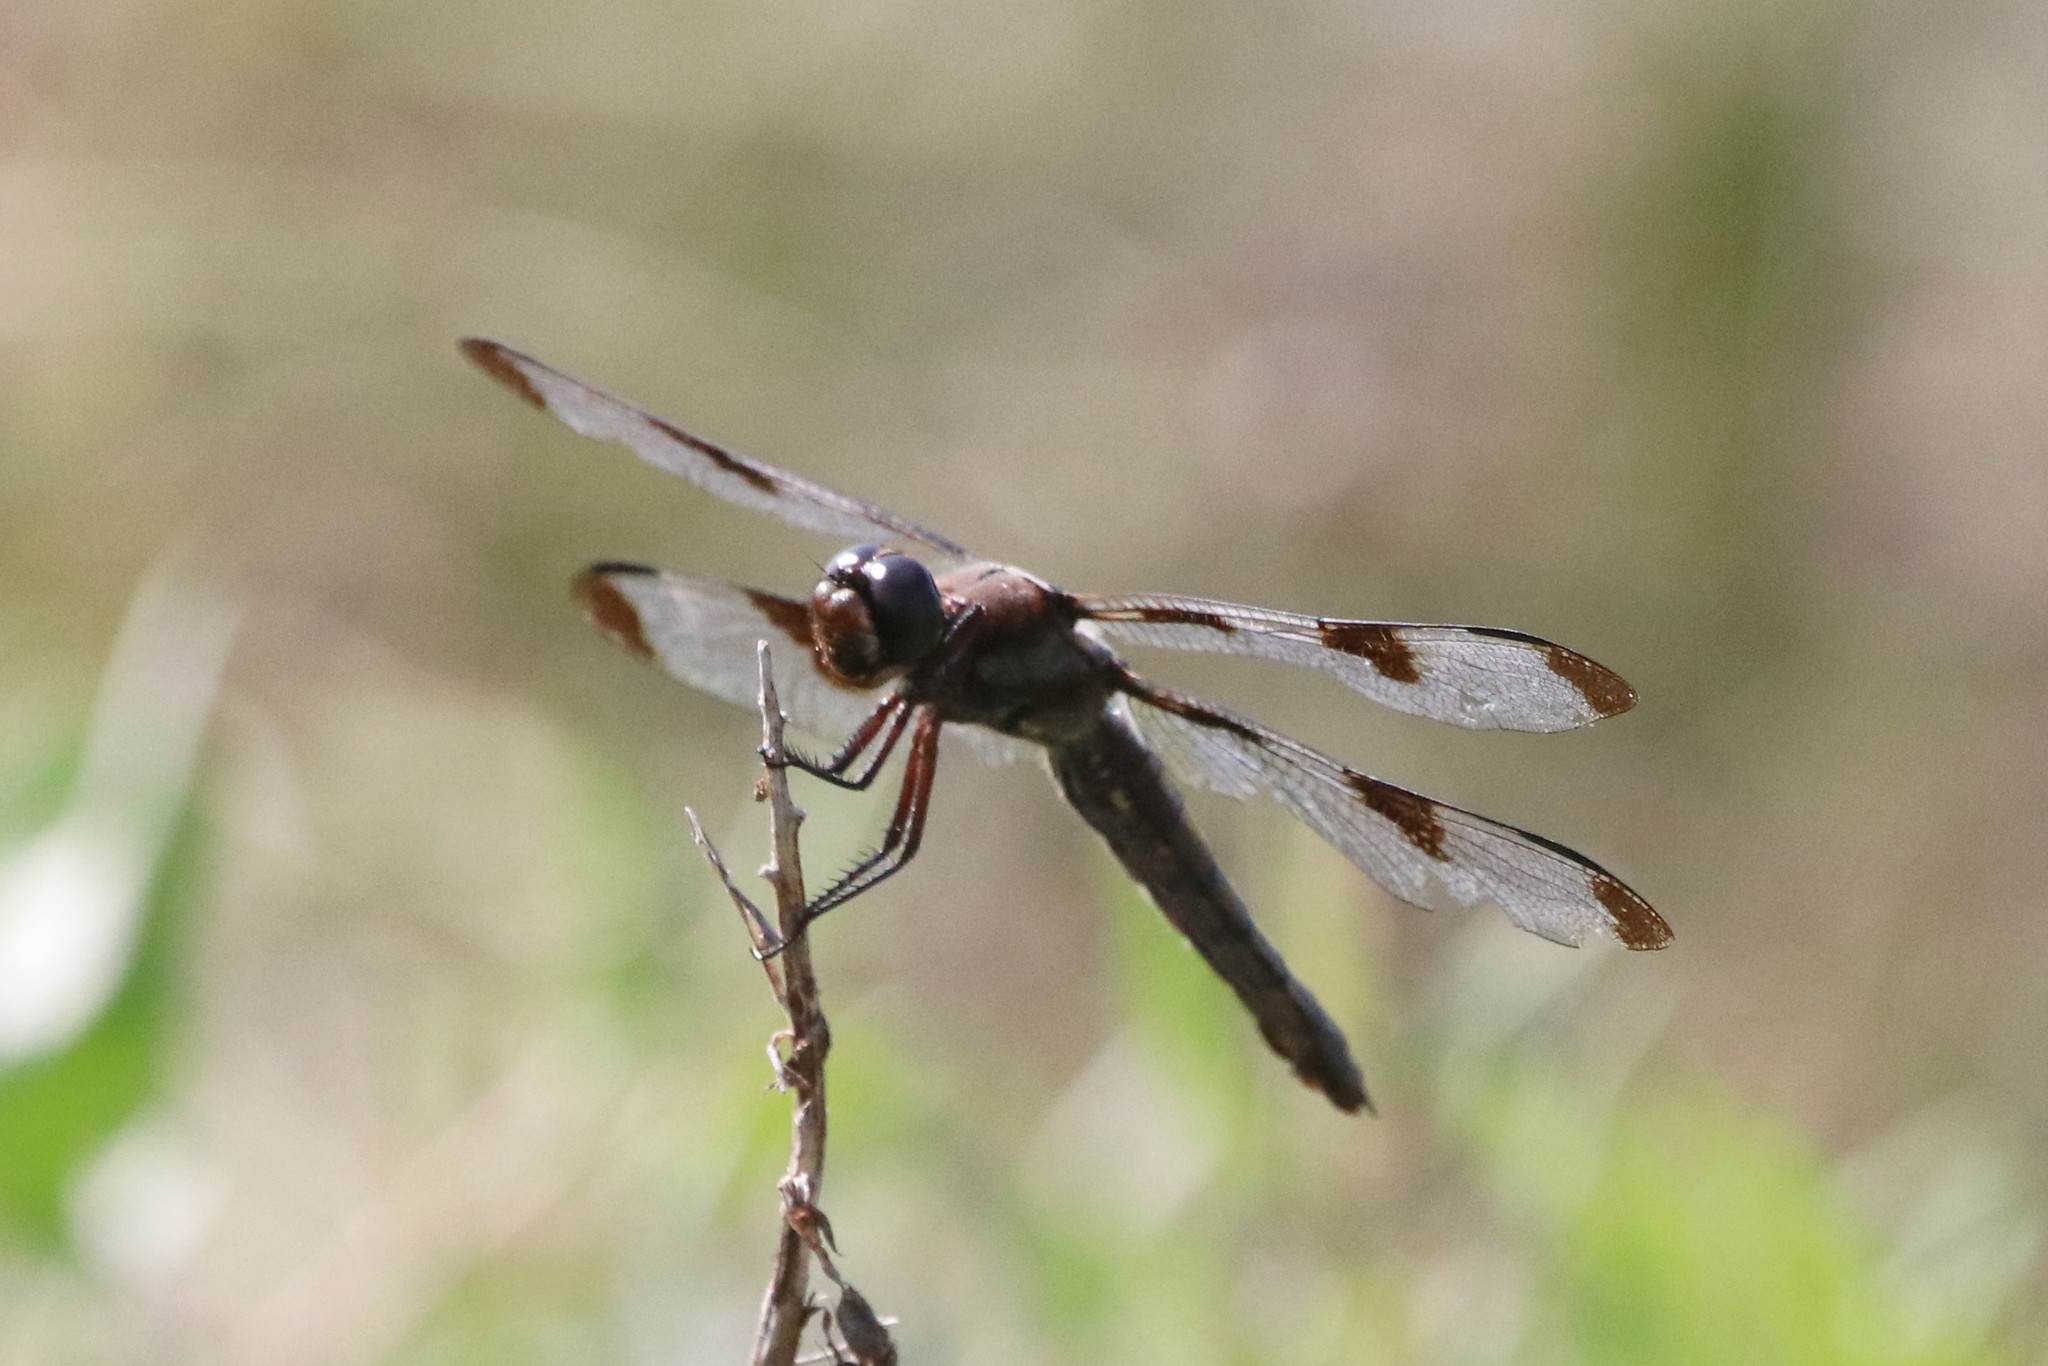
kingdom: Animalia
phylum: Arthropoda
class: Insecta
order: Odonata
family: Libellulidae
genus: Libellula
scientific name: Libellula pulchella
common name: Twelve-spotted skimmer
